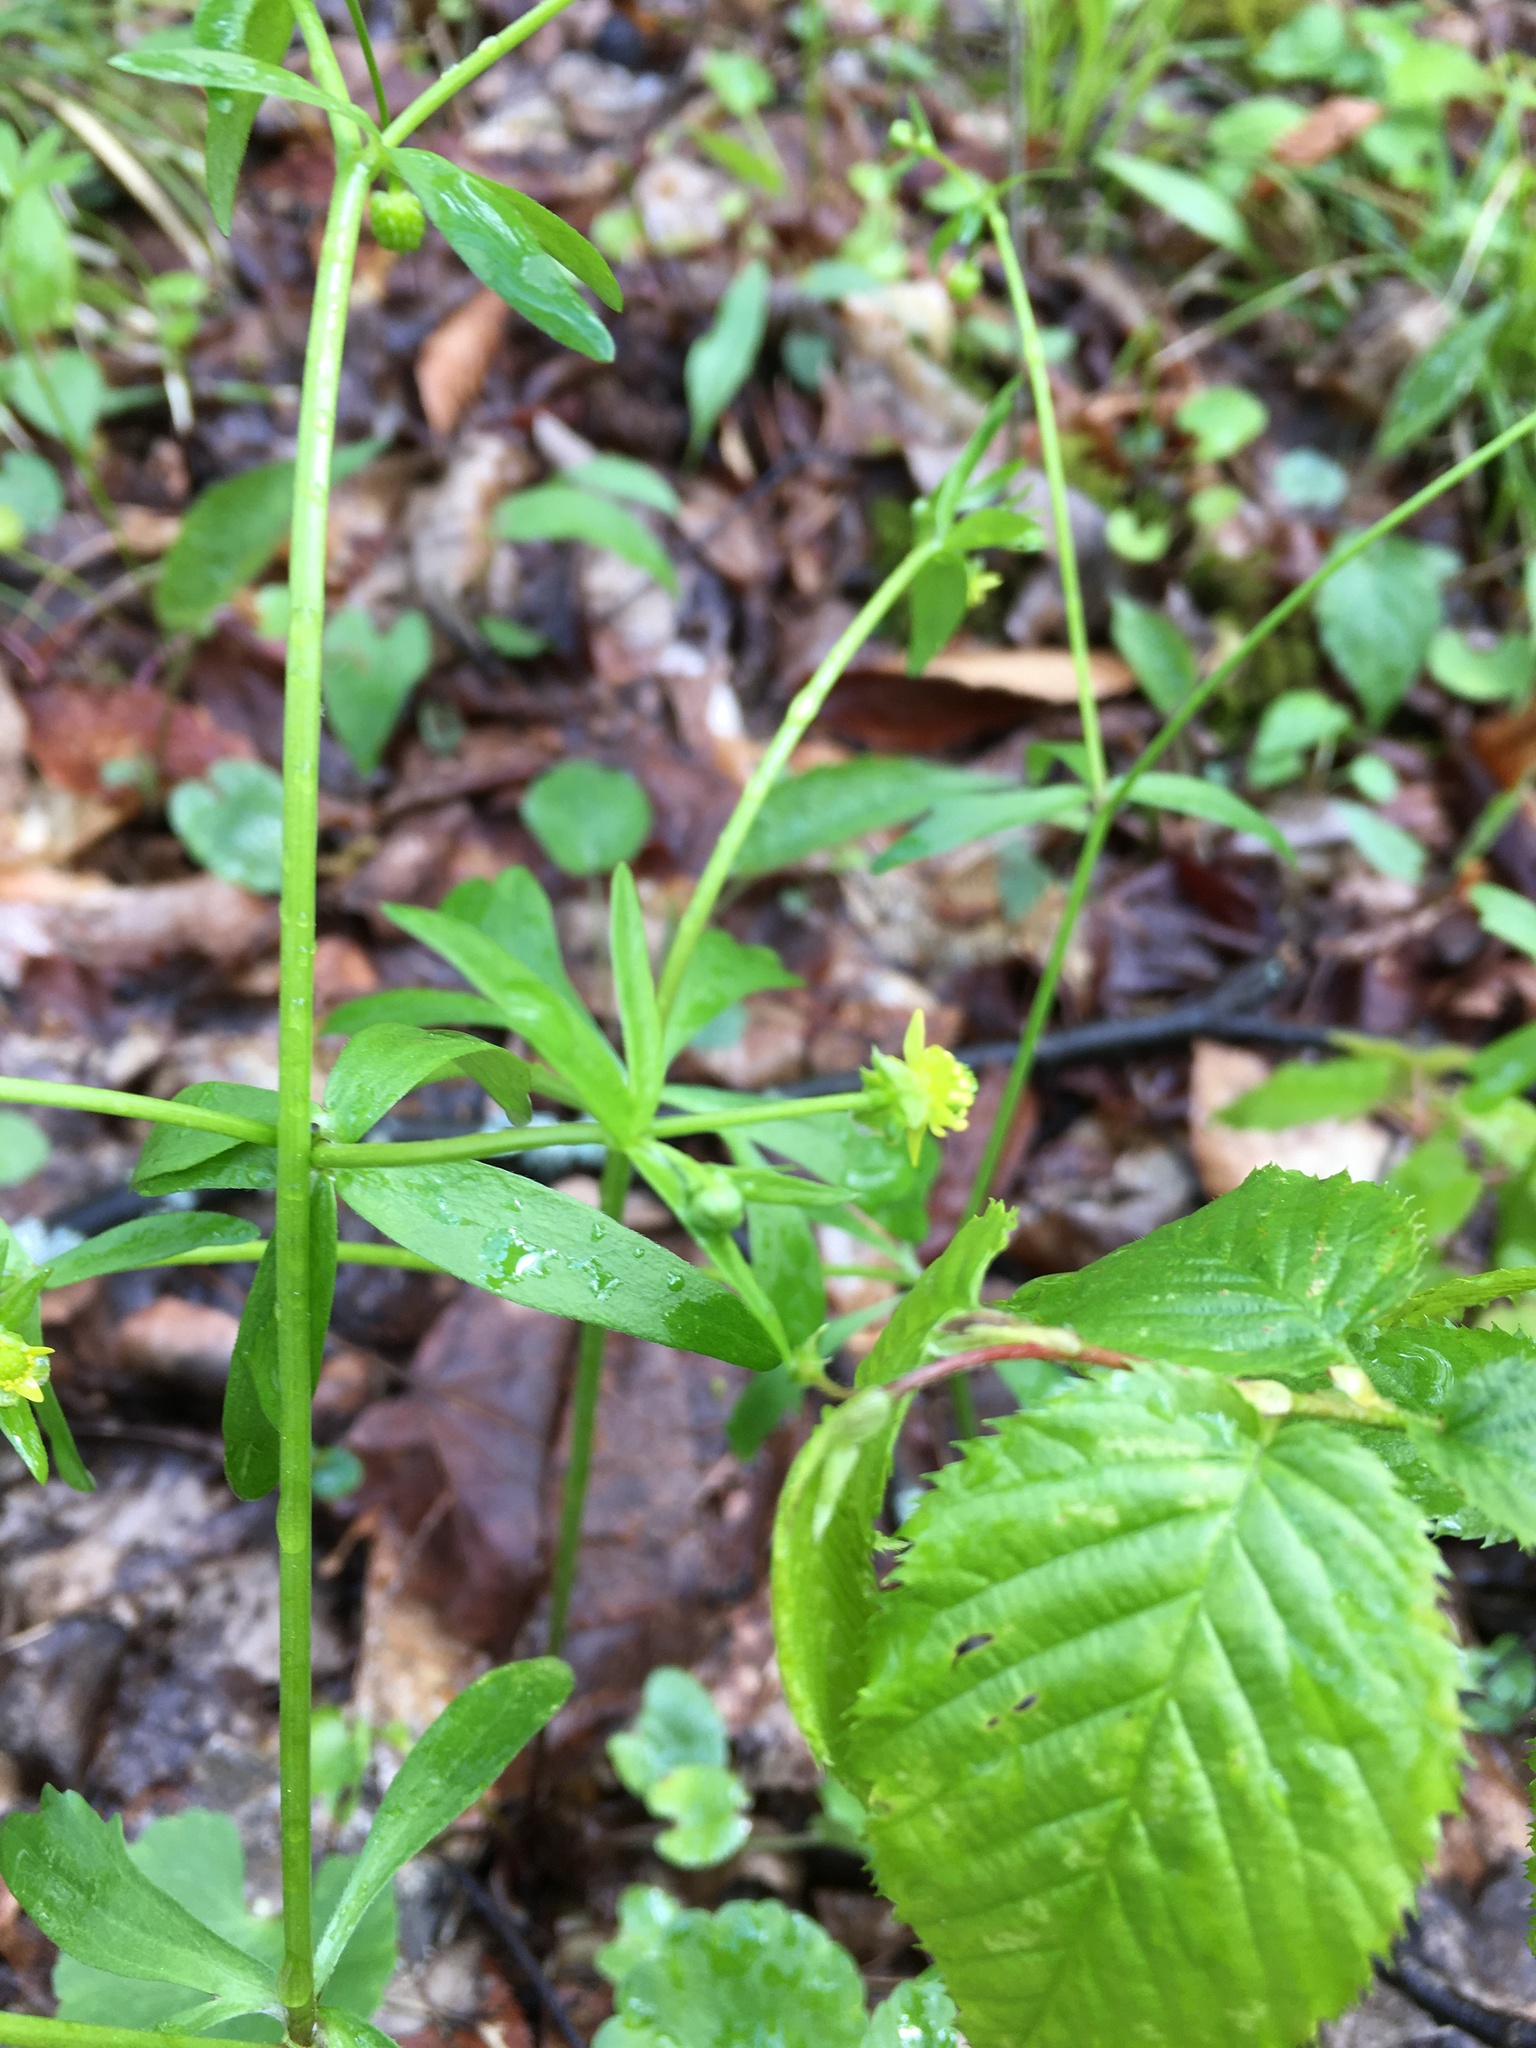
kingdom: Plantae
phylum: Tracheophyta
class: Magnoliopsida
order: Ranunculales
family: Ranunculaceae
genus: Ranunculus
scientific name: Ranunculus abortivus
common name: Early wood buttercup
